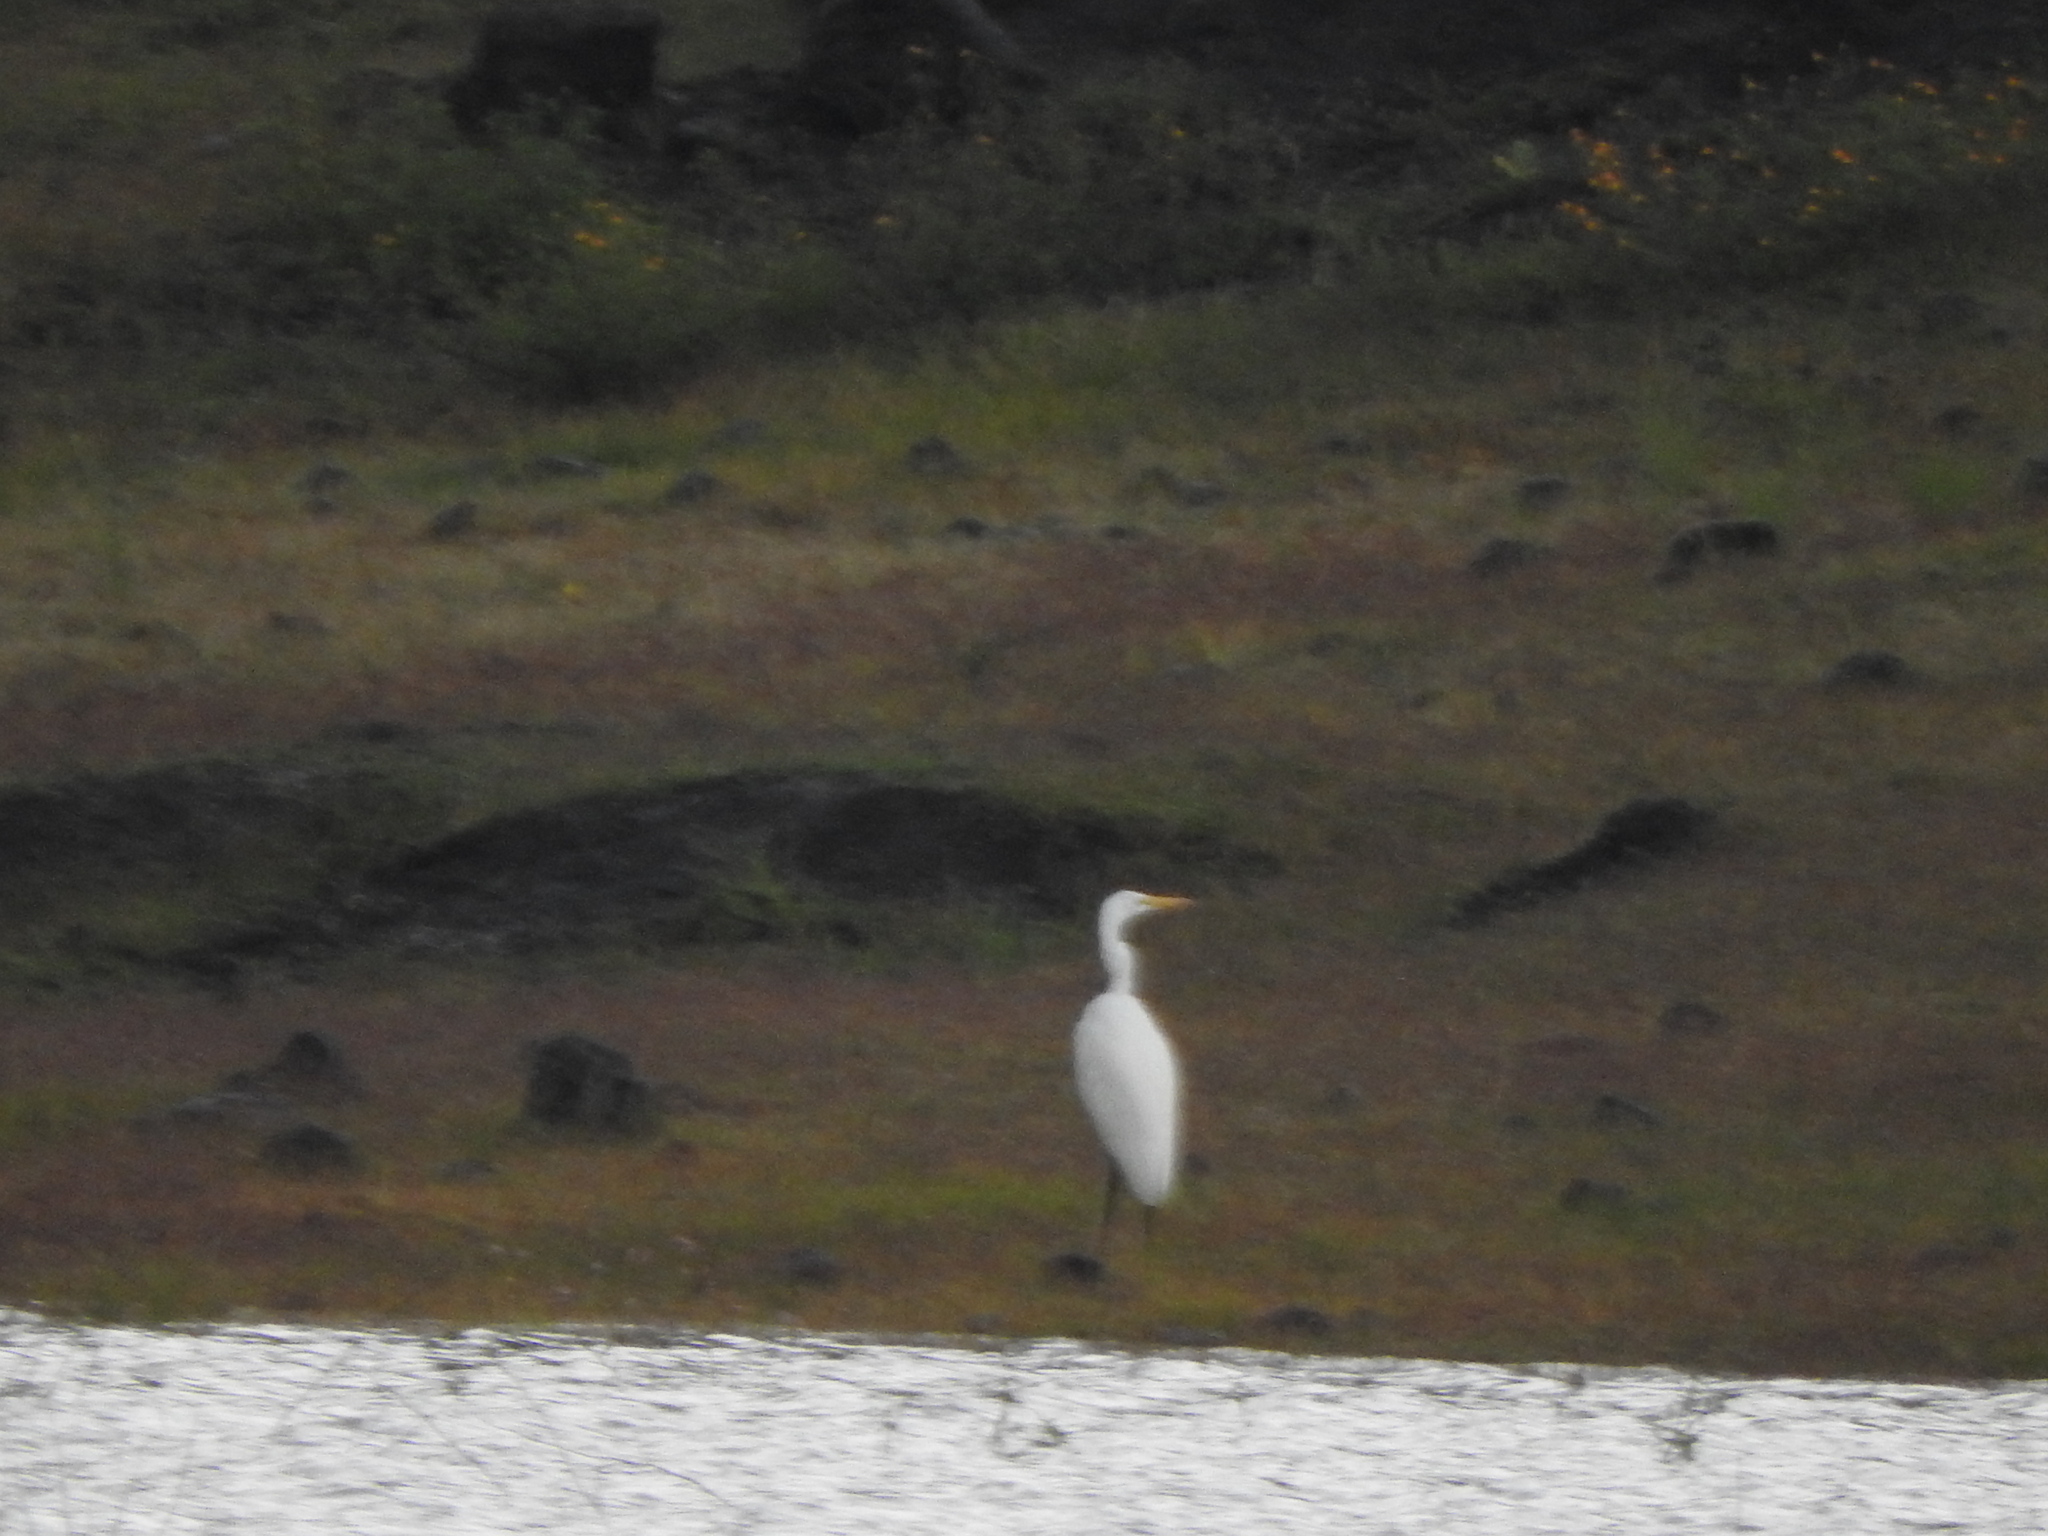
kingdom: Animalia
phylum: Chordata
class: Aves
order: Pelecaniformes
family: Ardeidae
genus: Ardea
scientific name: Ardea alba
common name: Great egret
